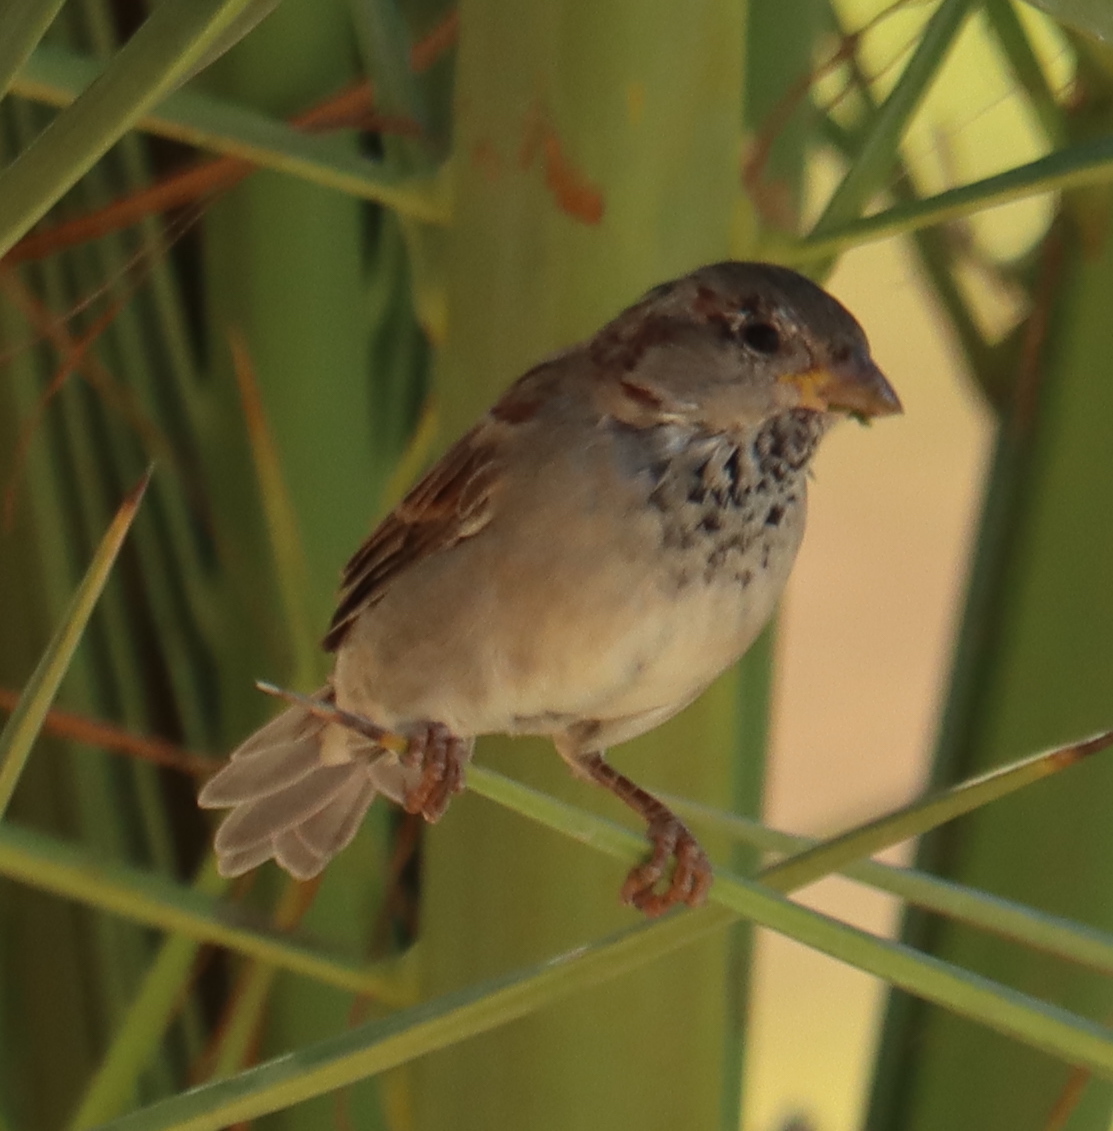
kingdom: Animalia
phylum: Chordata
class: Aves
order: Passeriformes
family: Passeridae
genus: Passer
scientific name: Passer domesticus
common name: House sparrow
